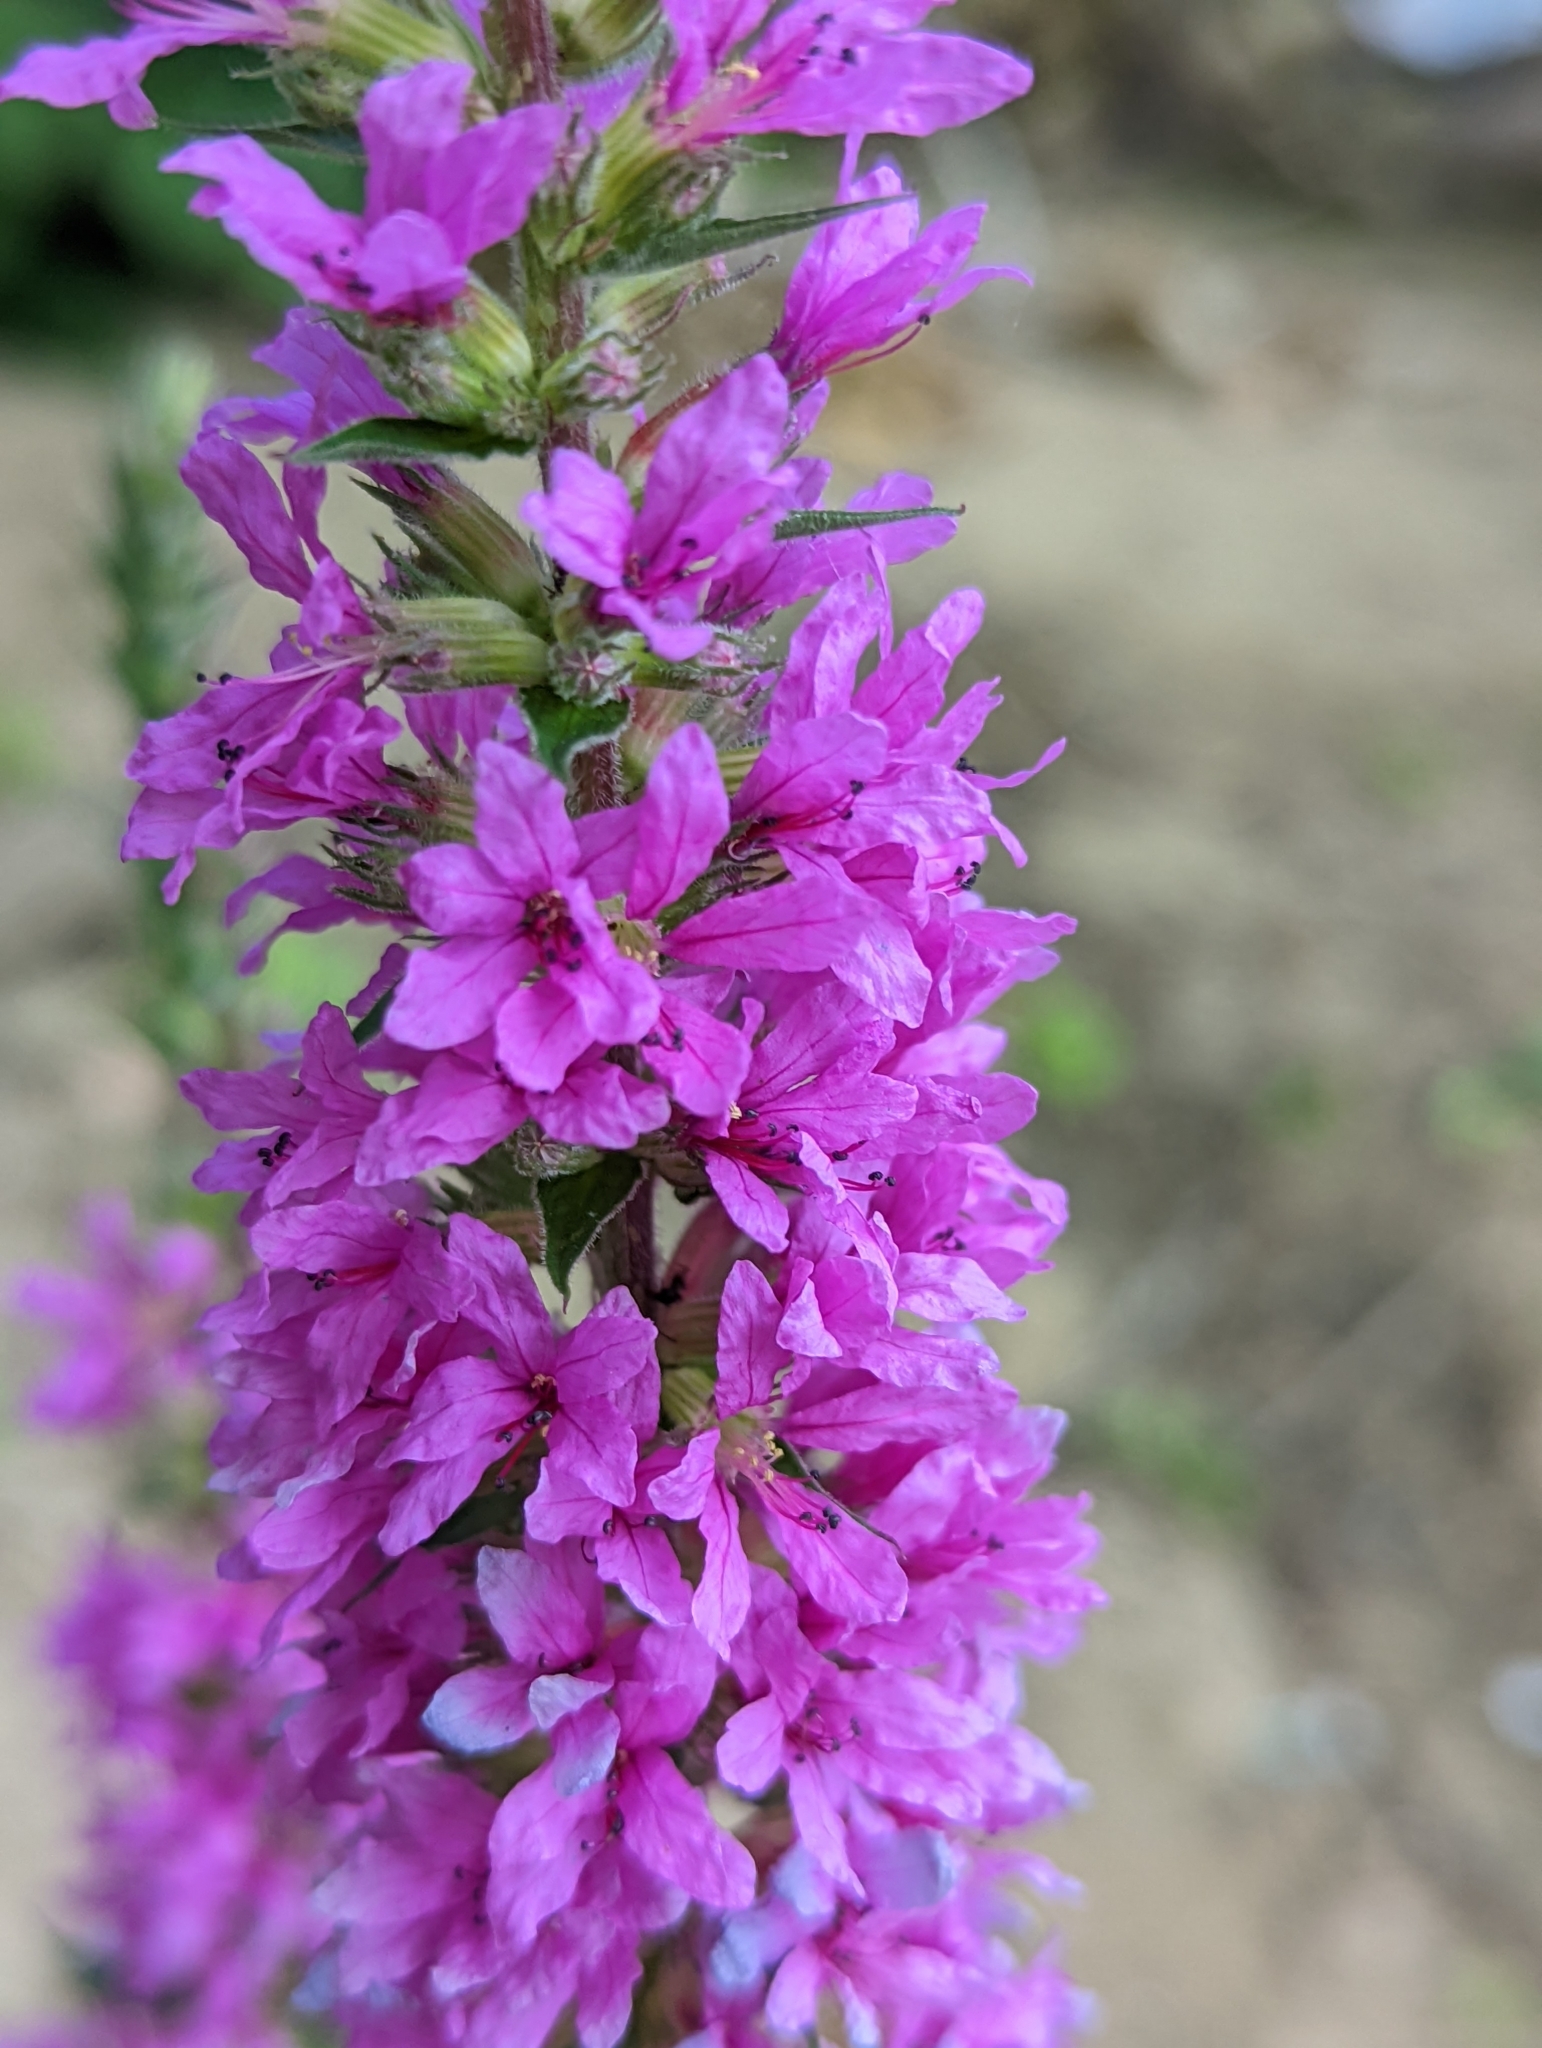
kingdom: Plantae
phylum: Tracheophyta
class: Magnoliopsida
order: Myrtales
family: Lythraceae
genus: Lythrum
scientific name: Lythrum salicaria
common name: Purple loosestrife
